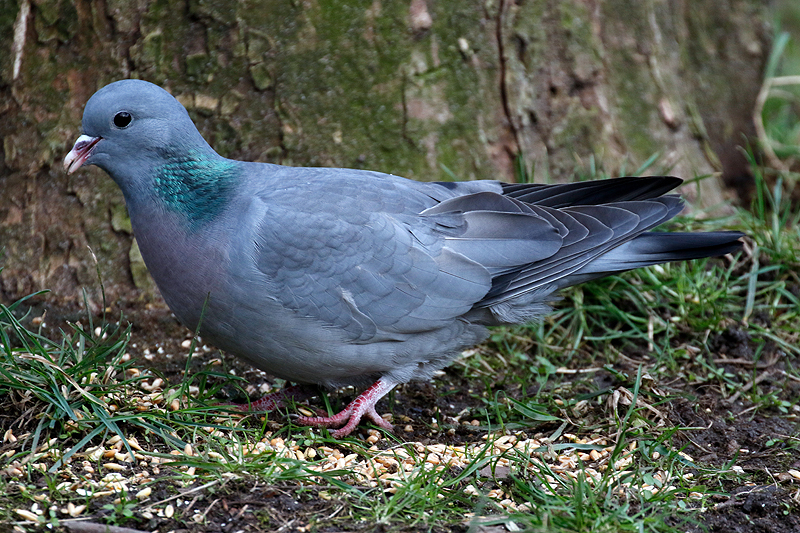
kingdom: Animalia
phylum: Chordata
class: Aves
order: Columbiformes
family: Columbidae
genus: Columba
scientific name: Columba oenas
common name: Stock dove
